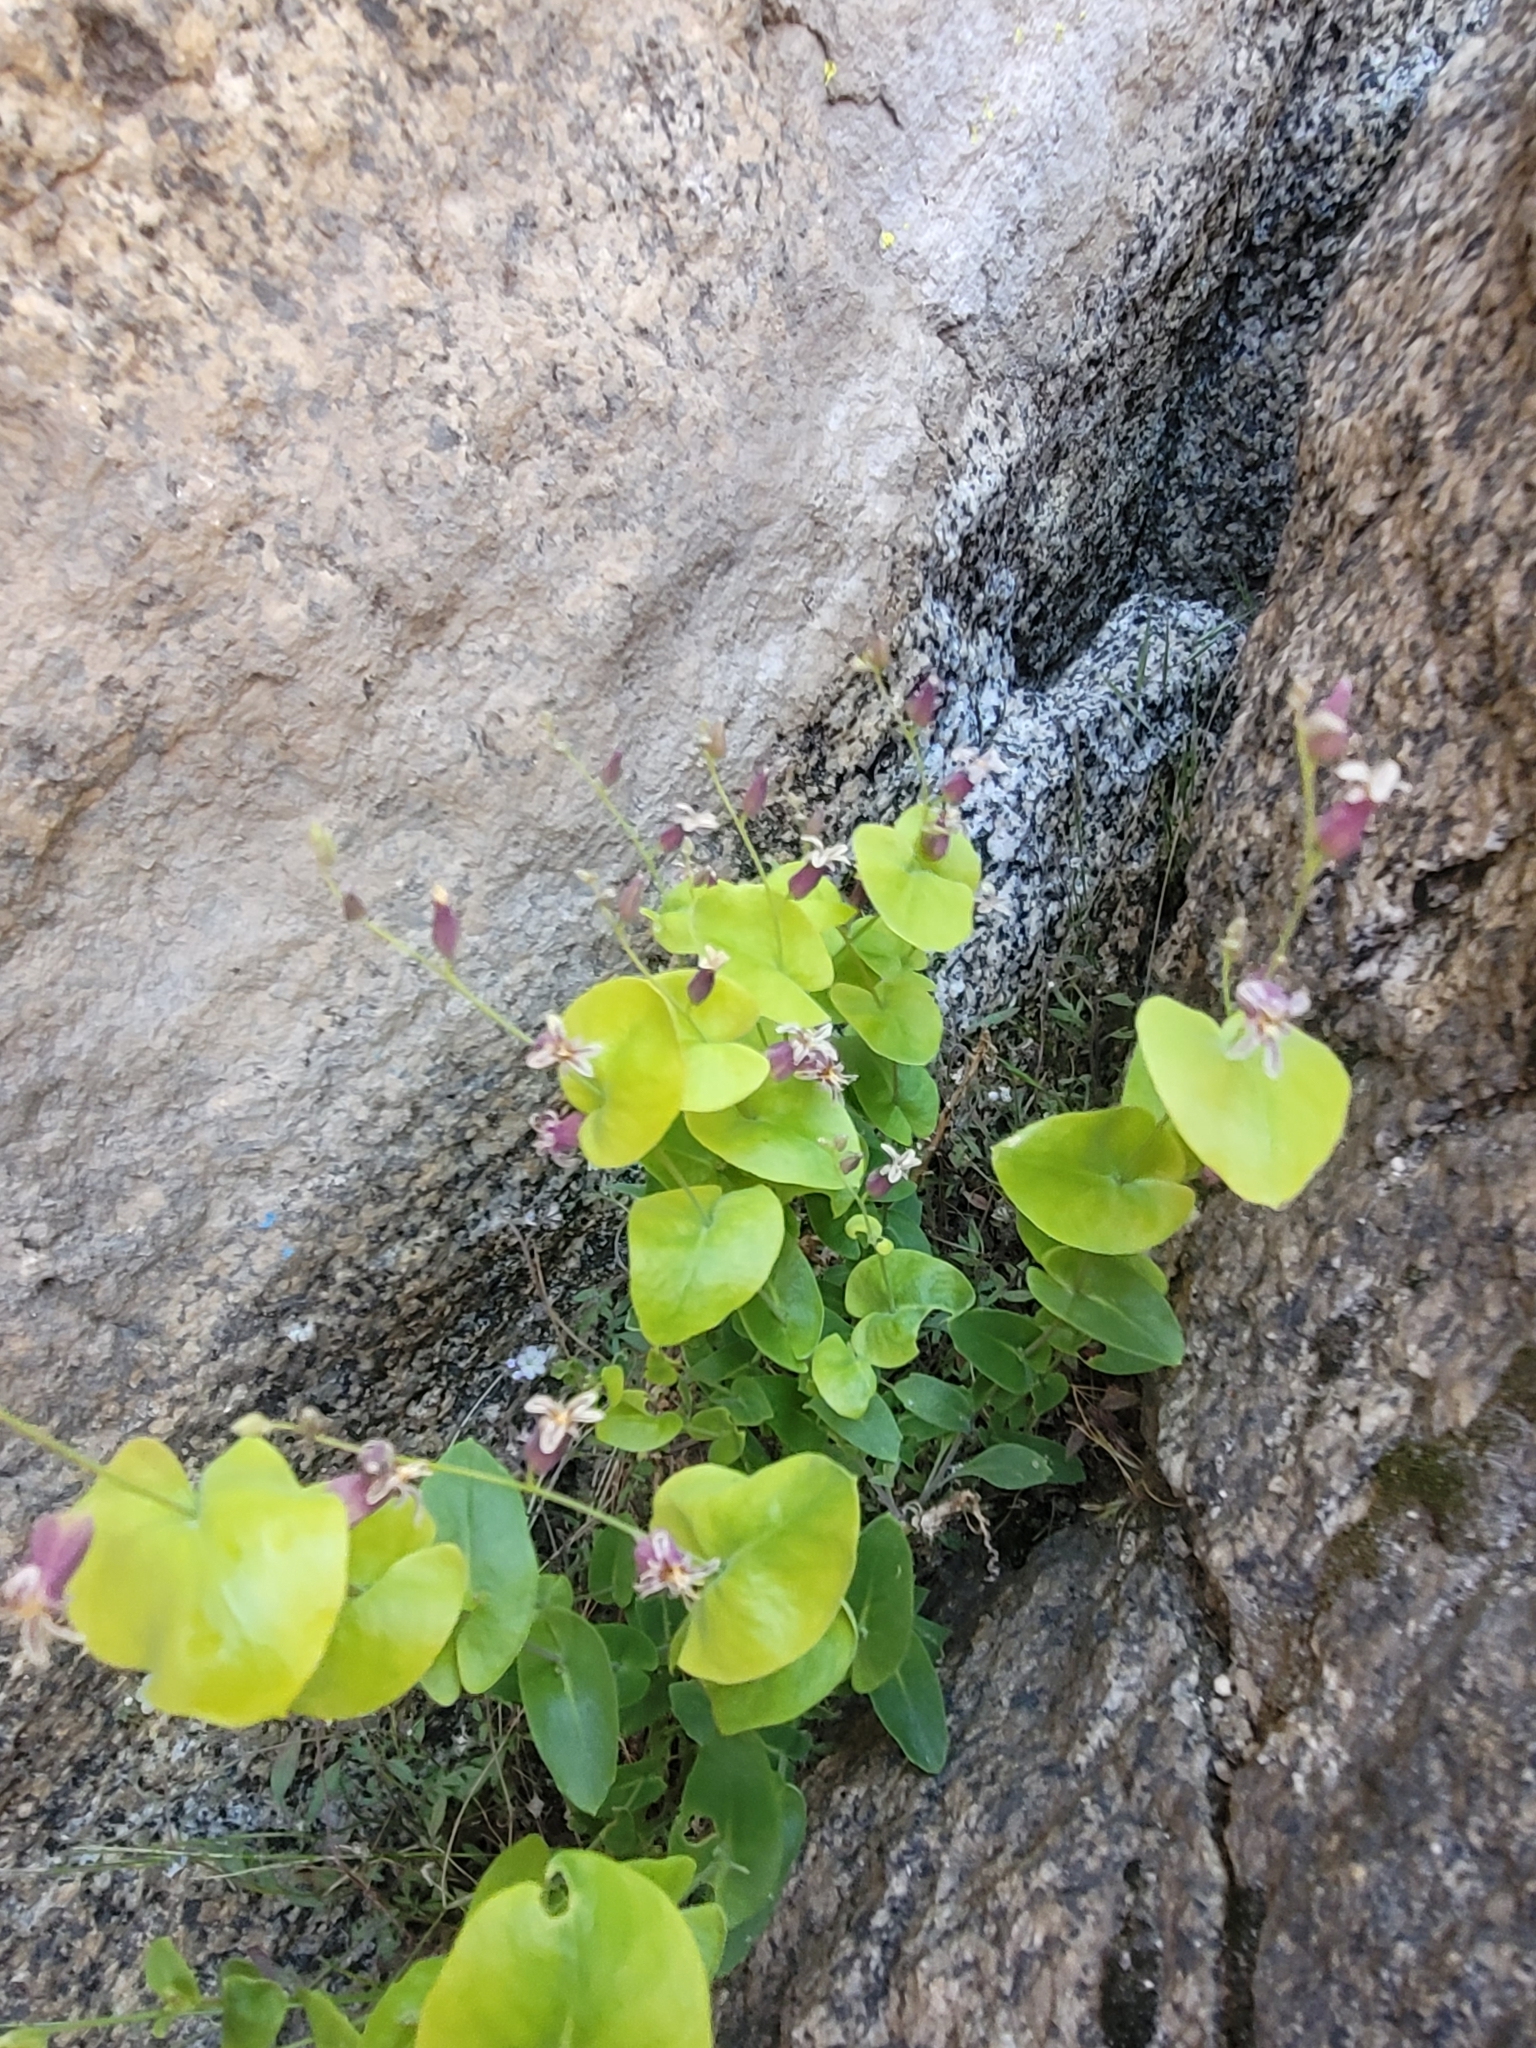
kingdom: Plantae
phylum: Tracheophyta
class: Magnoliopsida
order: Brassicales
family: Brassicaceae
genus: Streptanthus
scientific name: Streptanthus tortuosus
